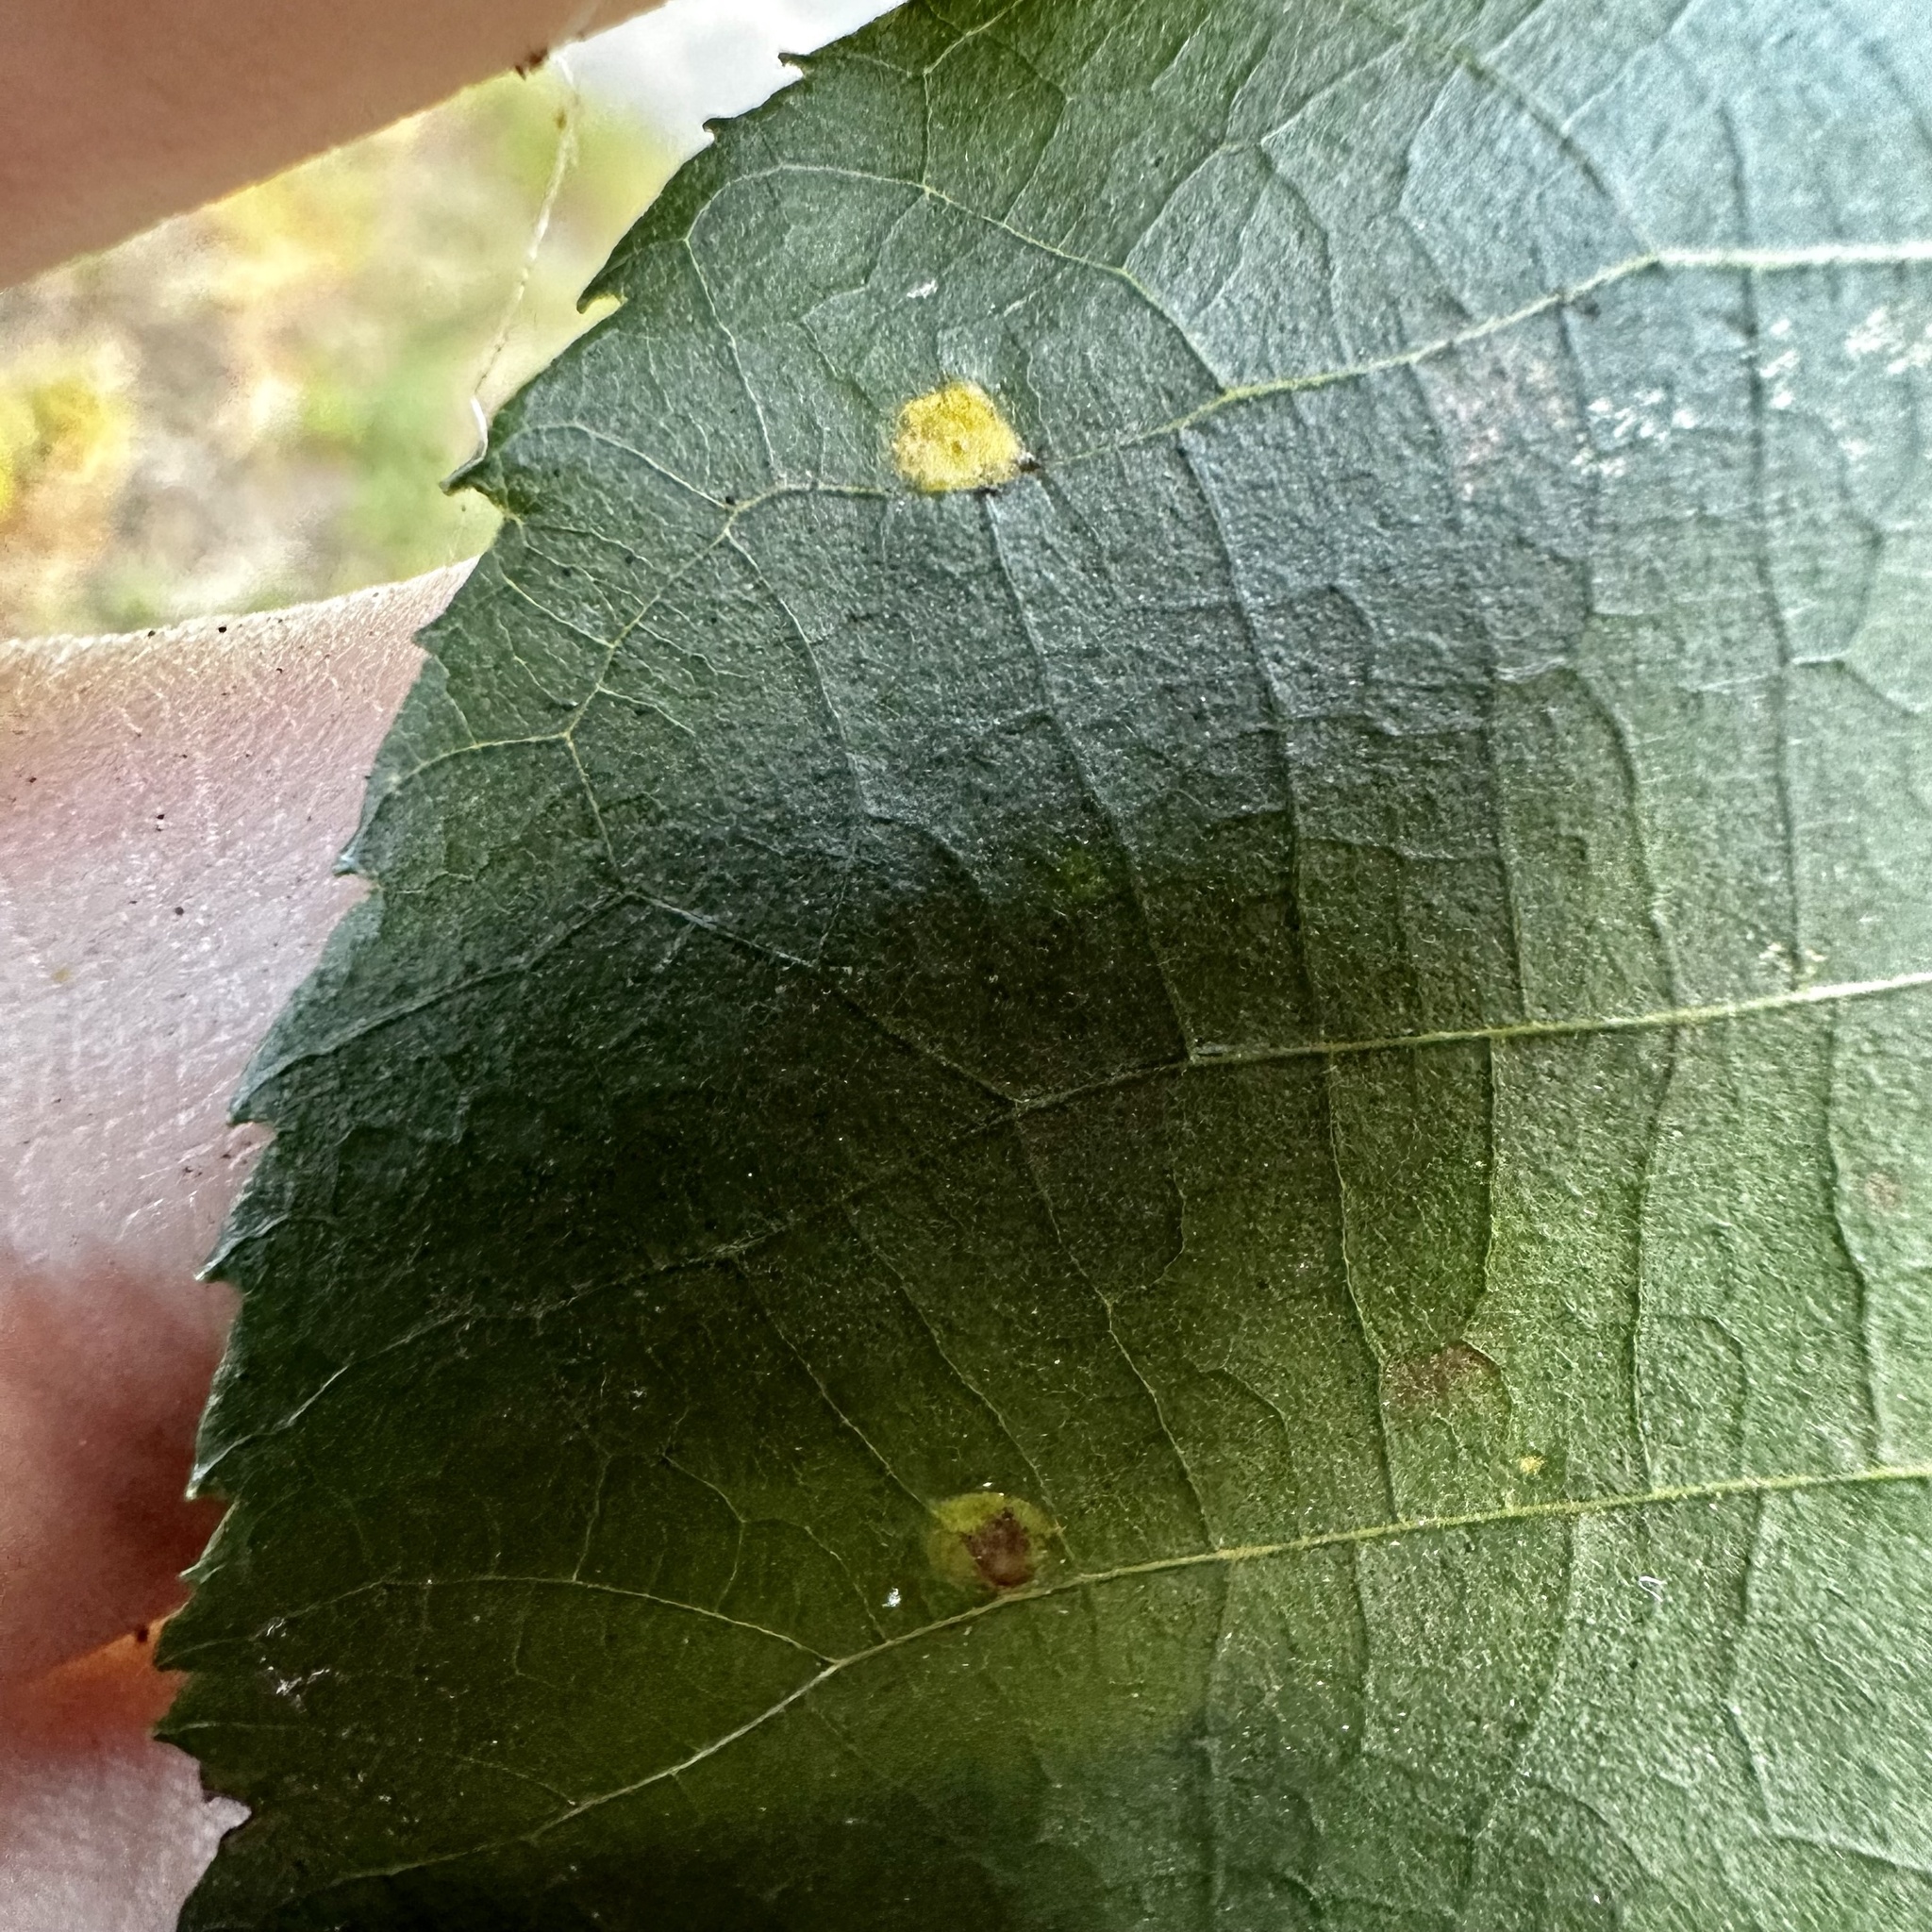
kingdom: Animalia
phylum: Arthropoda
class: Insecta
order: Diptera
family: Cecidomyiidae
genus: Caryomyia
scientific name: Caryomyia melicrustum
